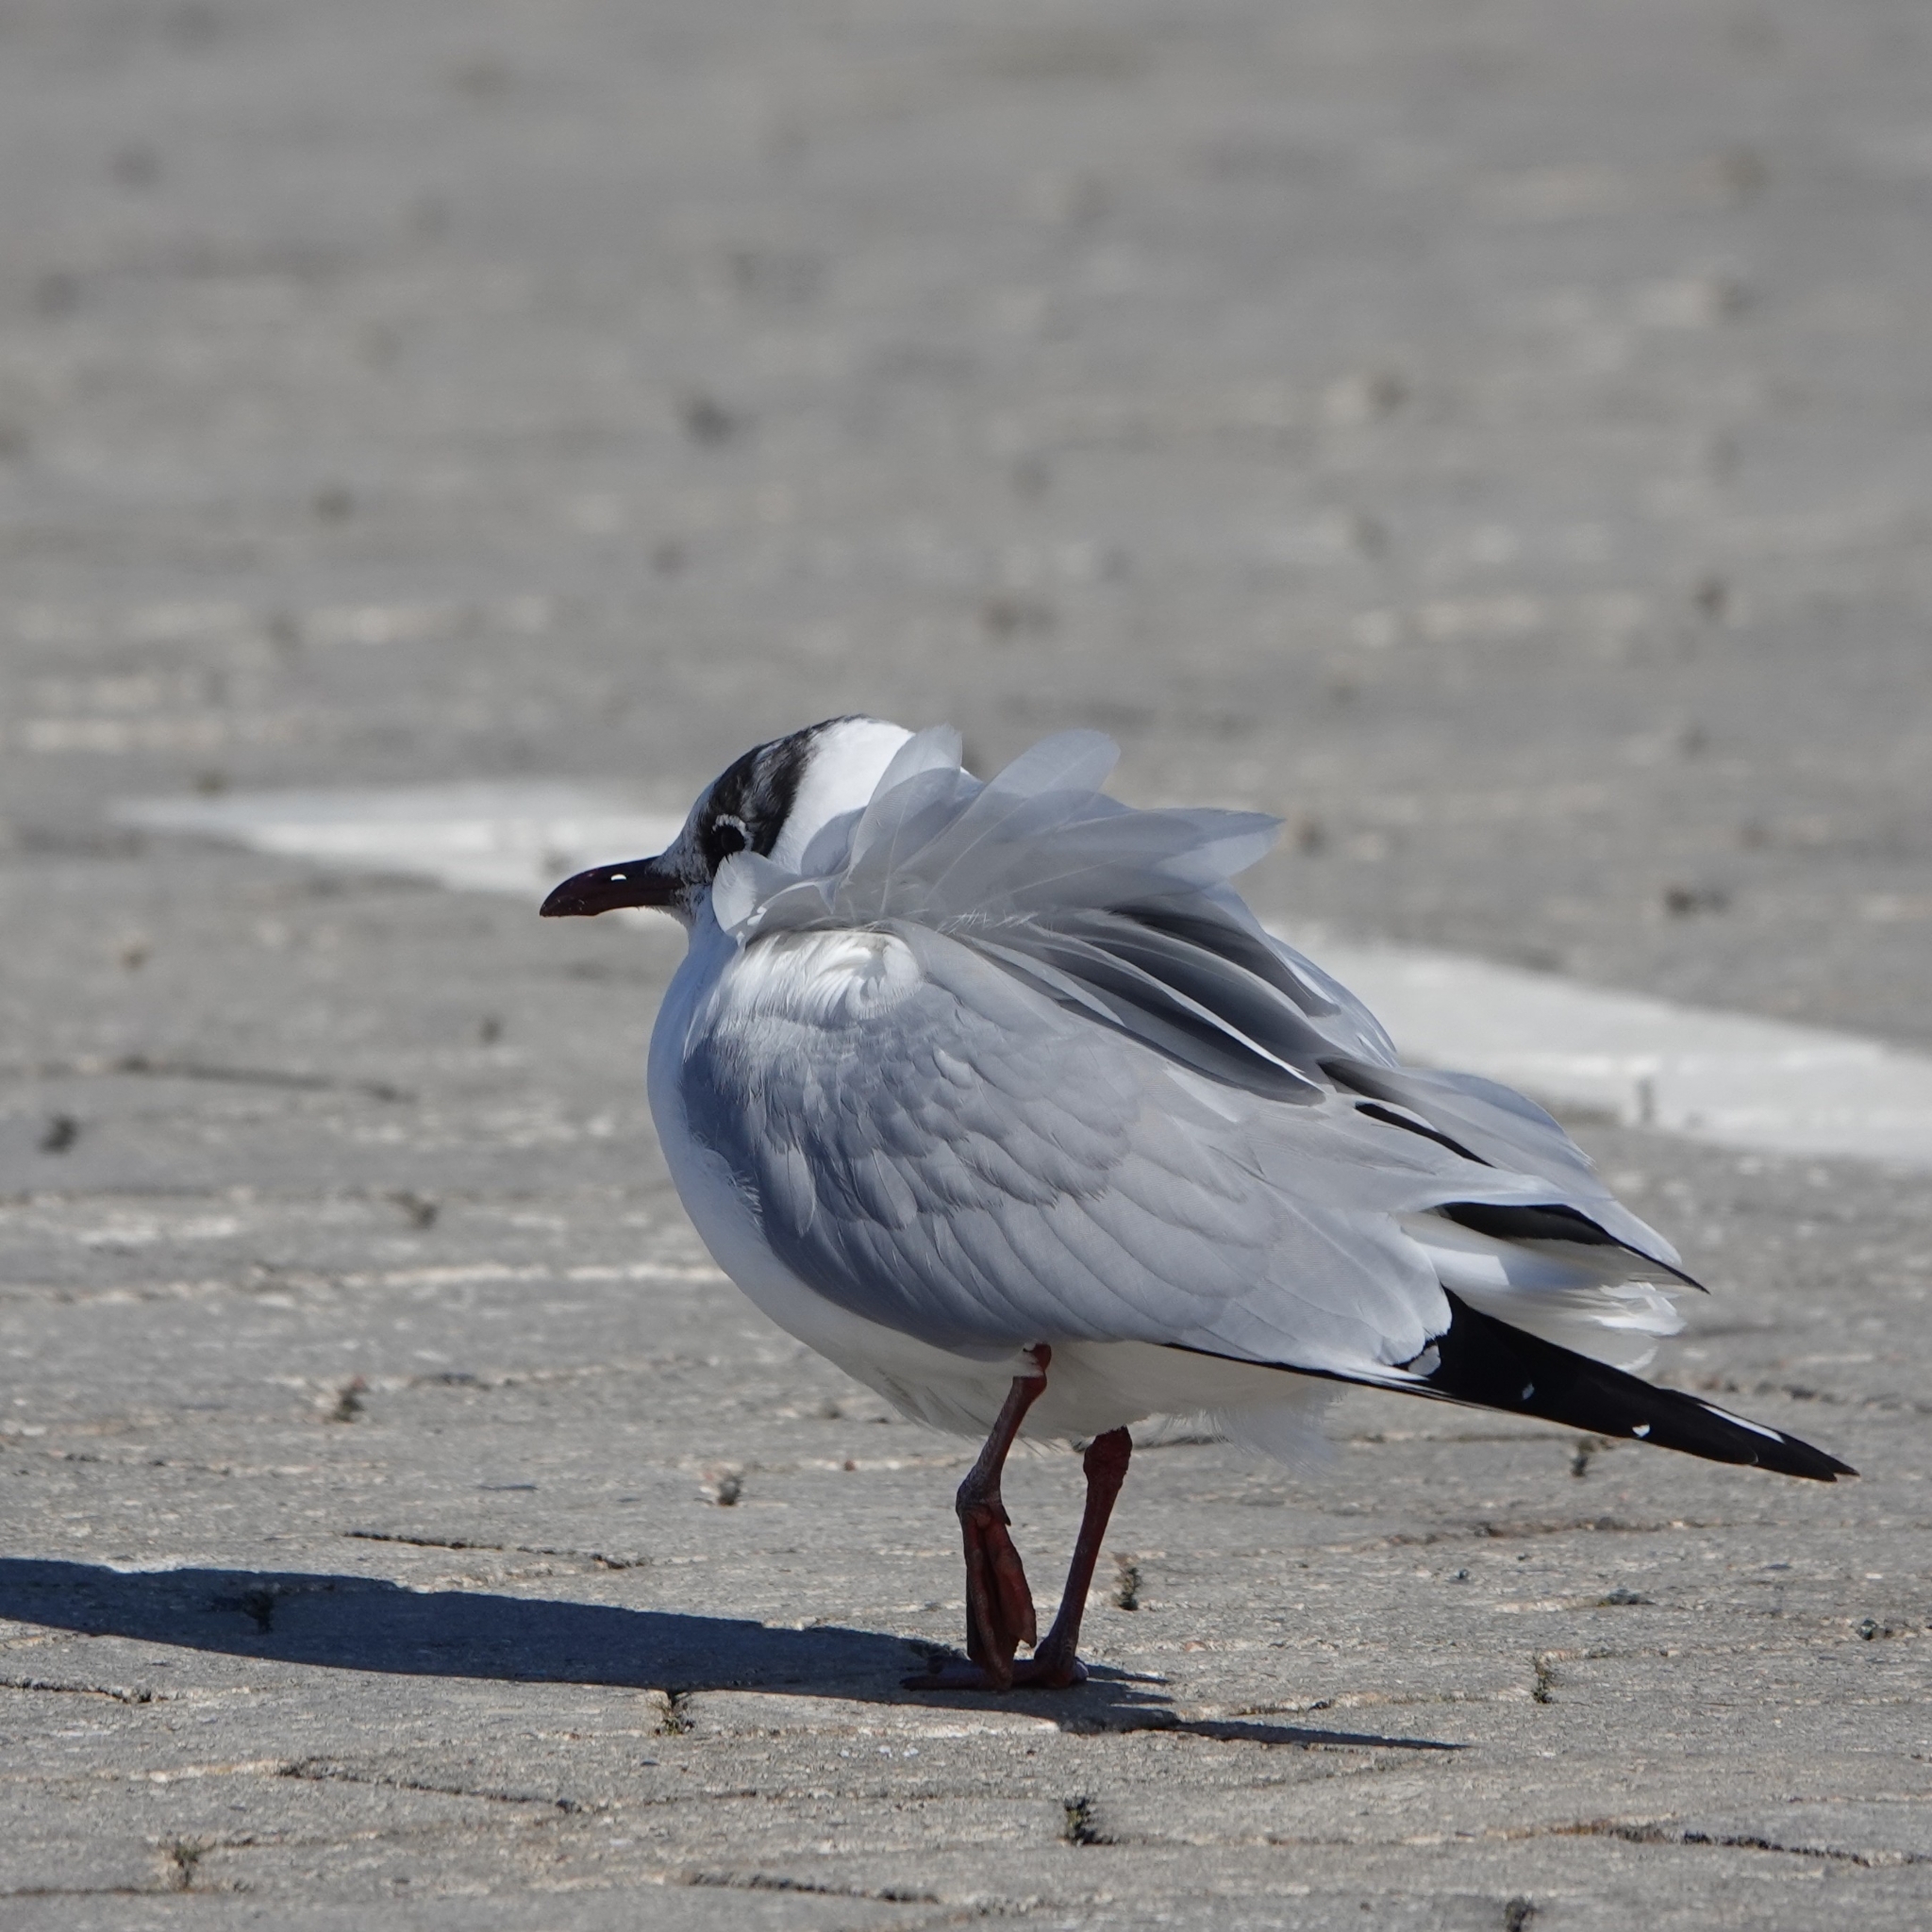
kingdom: Animalia
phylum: Chordata
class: Aves
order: Charadriiformes
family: Laridae
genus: Chroicocephalus
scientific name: Chroicocephalus ridibundus
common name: Black-headed gull
